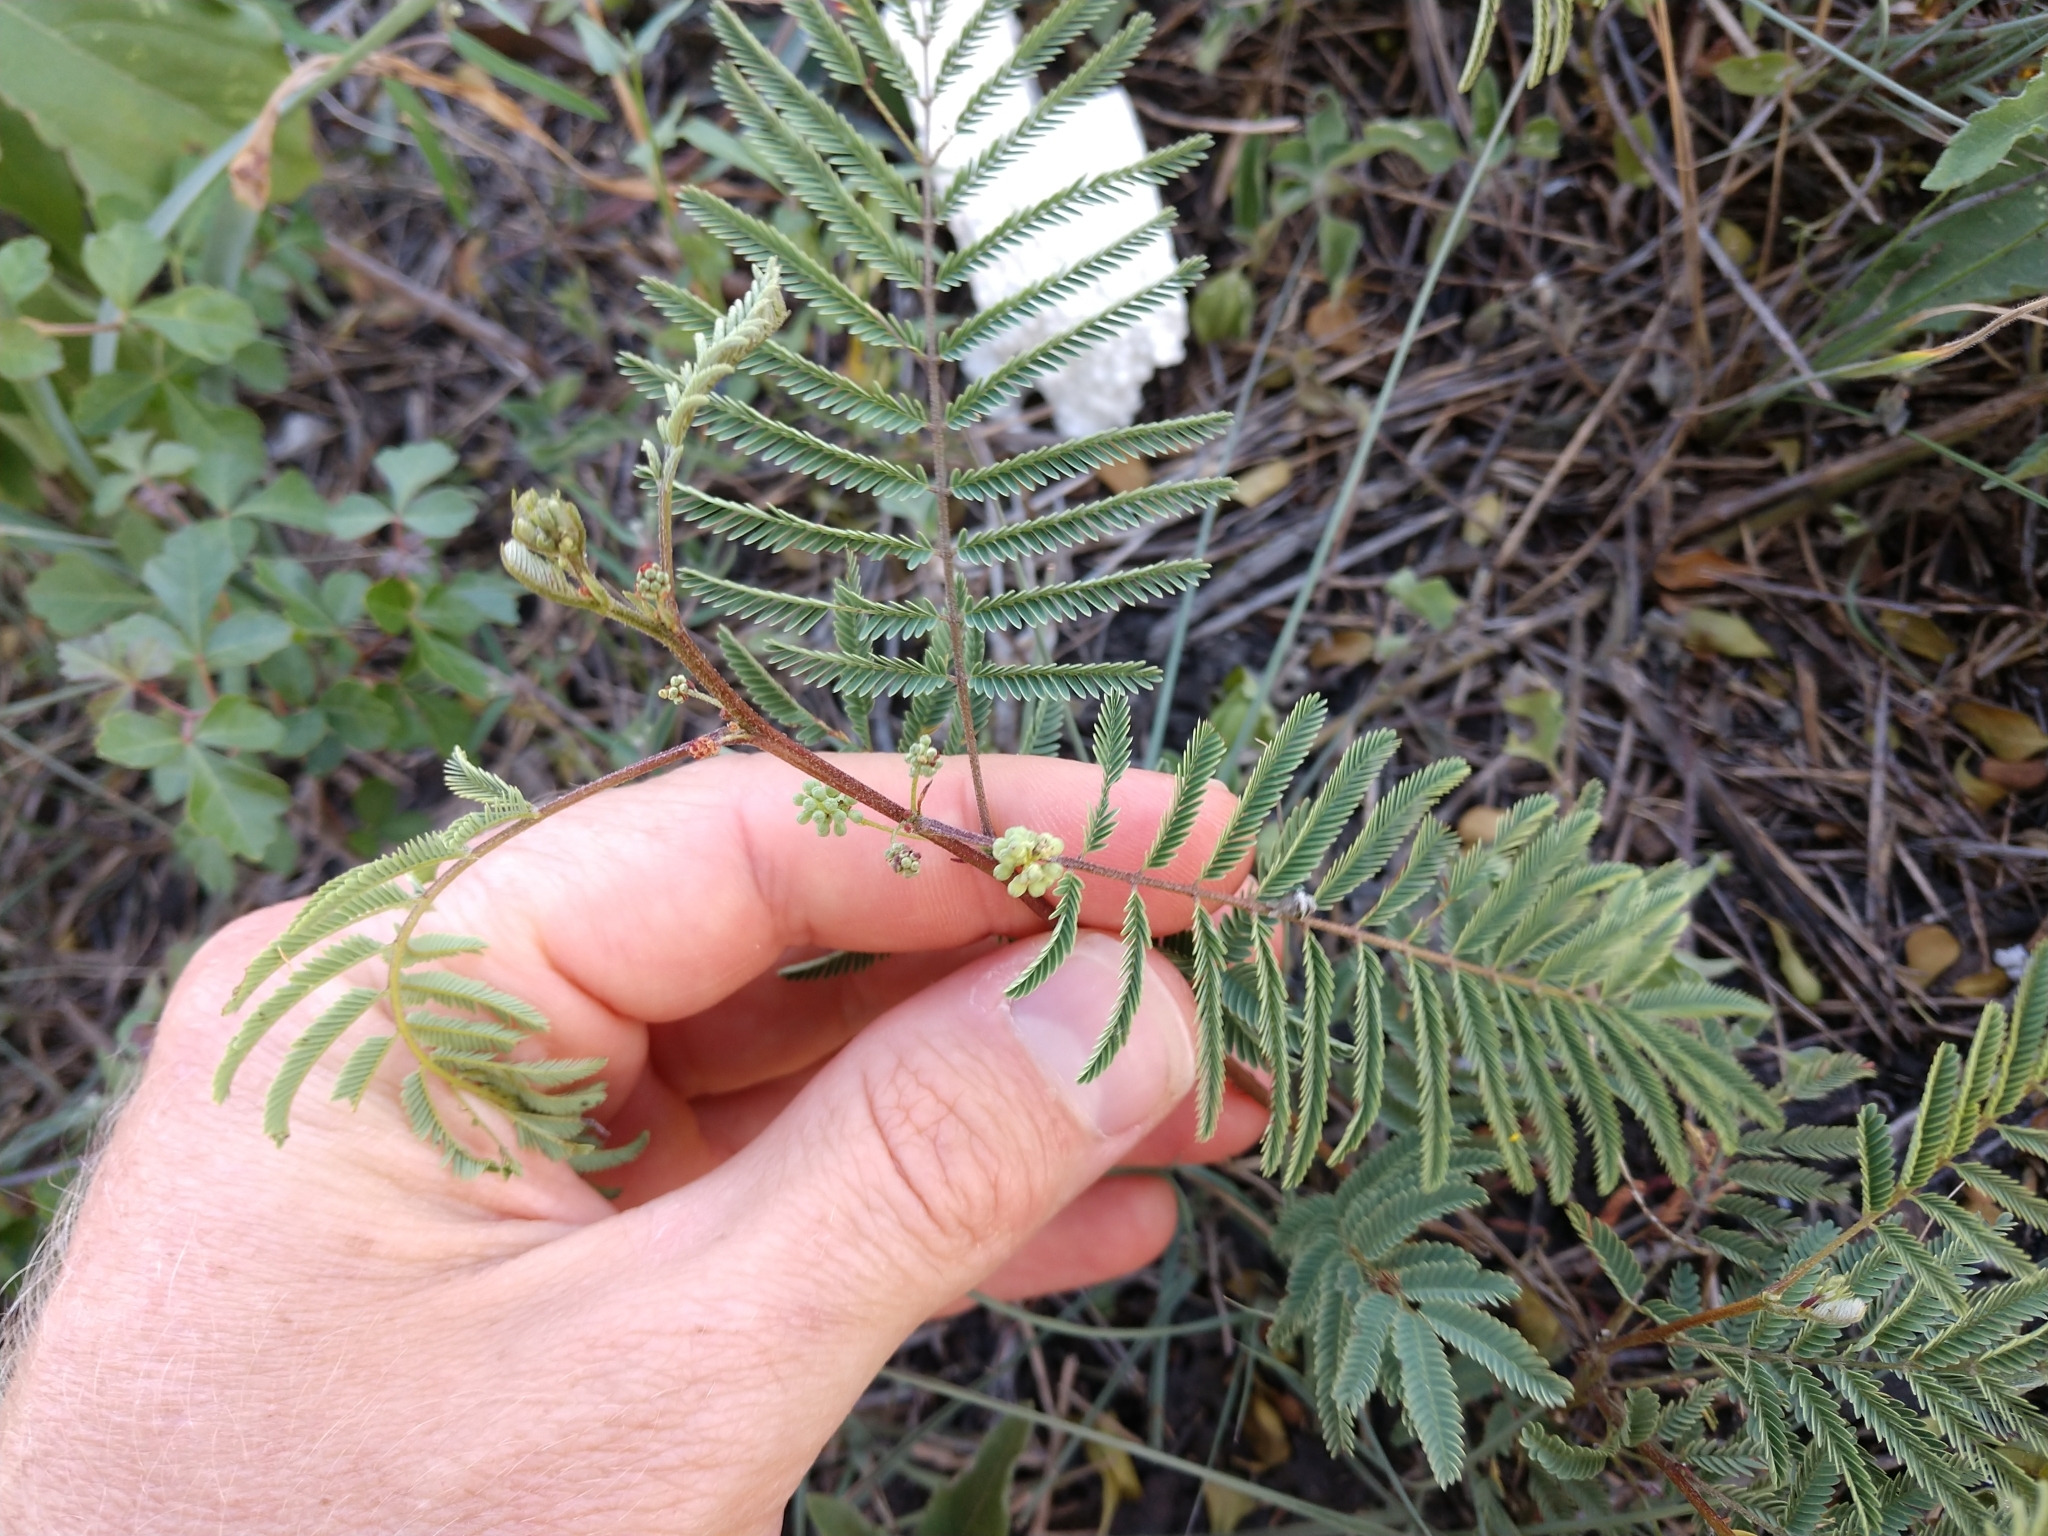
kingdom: Plantae
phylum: Tracheophyta
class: Magnoliopsida
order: Fabales
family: Fabaceae
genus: Acaciella
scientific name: Acaciella angustissima
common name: Prairie acacia
